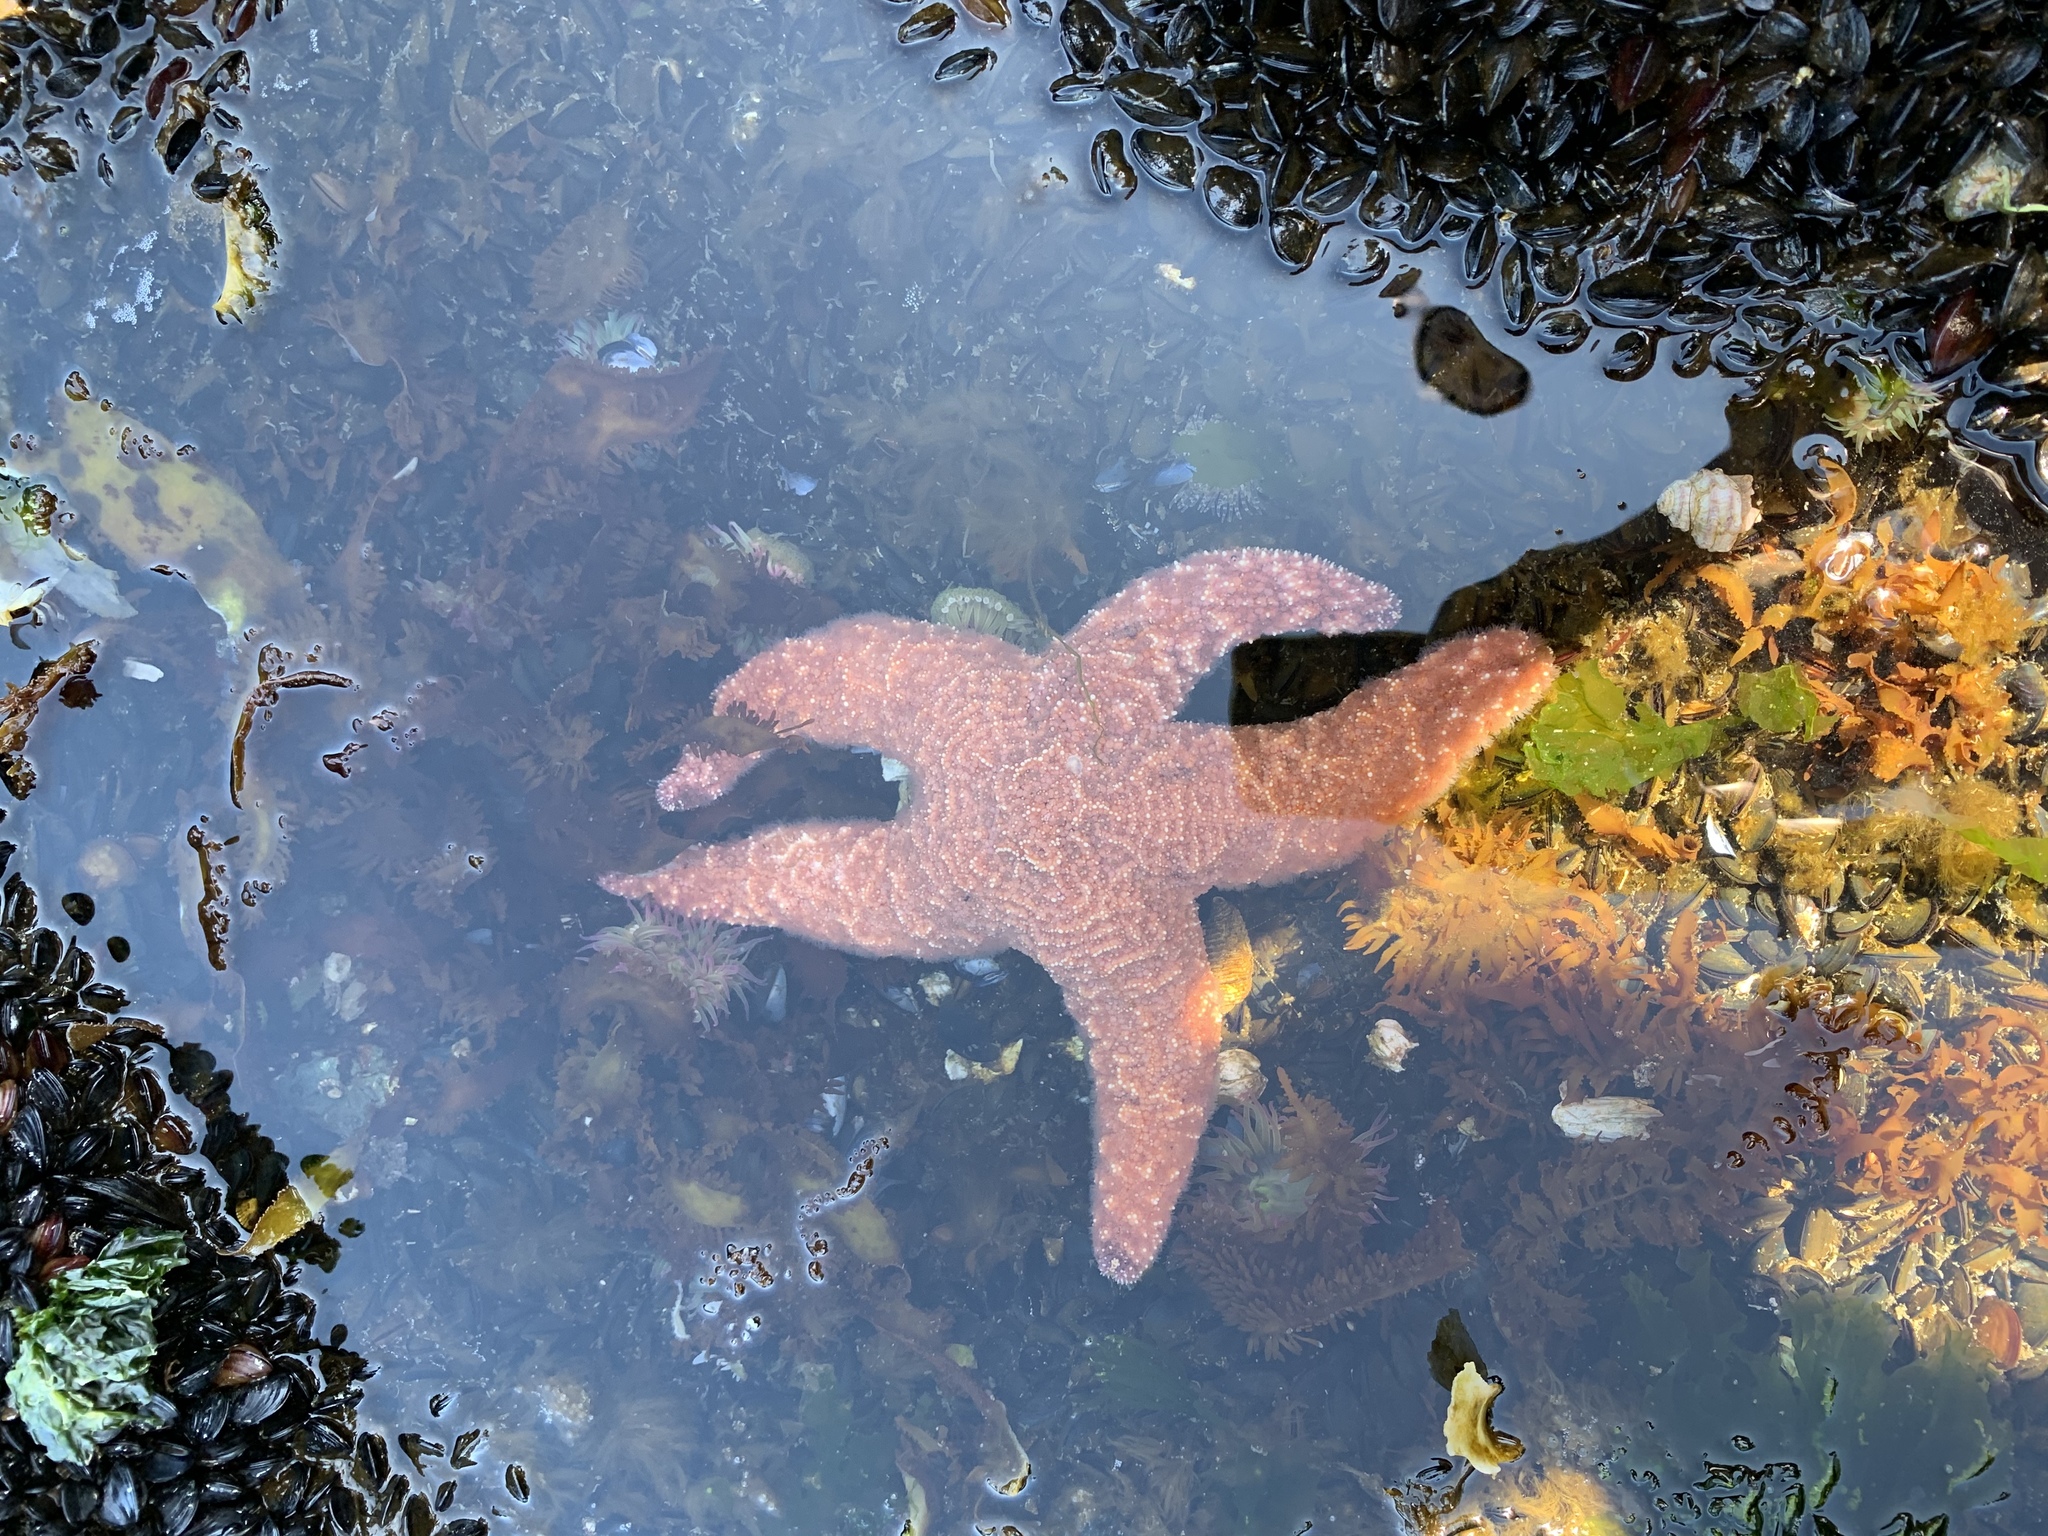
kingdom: Animalia
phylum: Echinodermata
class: Asteroidea
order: Forcipulatida
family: Asteriidae
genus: Pisaster
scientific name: Pisaster ochraceus
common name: Ochre stars
